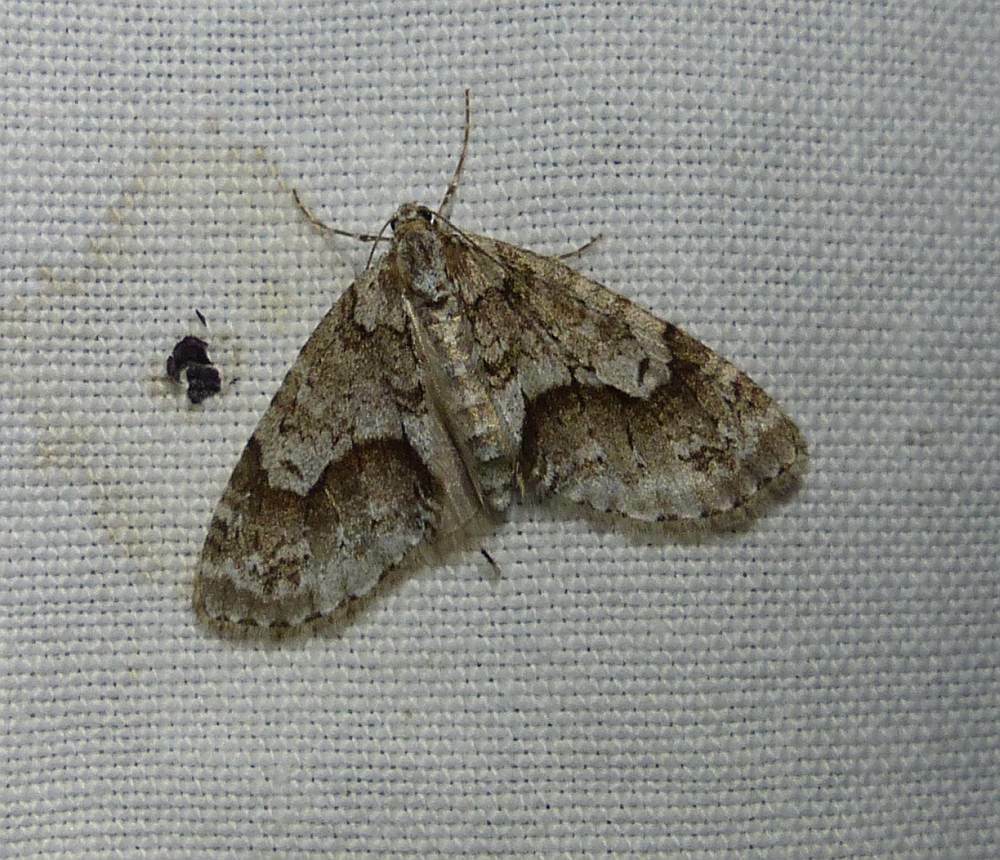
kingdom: Animalia
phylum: Arthropoda
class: Insecta
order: Lepidoptera
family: Geometridae
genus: Cladara
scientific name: Cladara limitaria
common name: Mottled gray carpet
